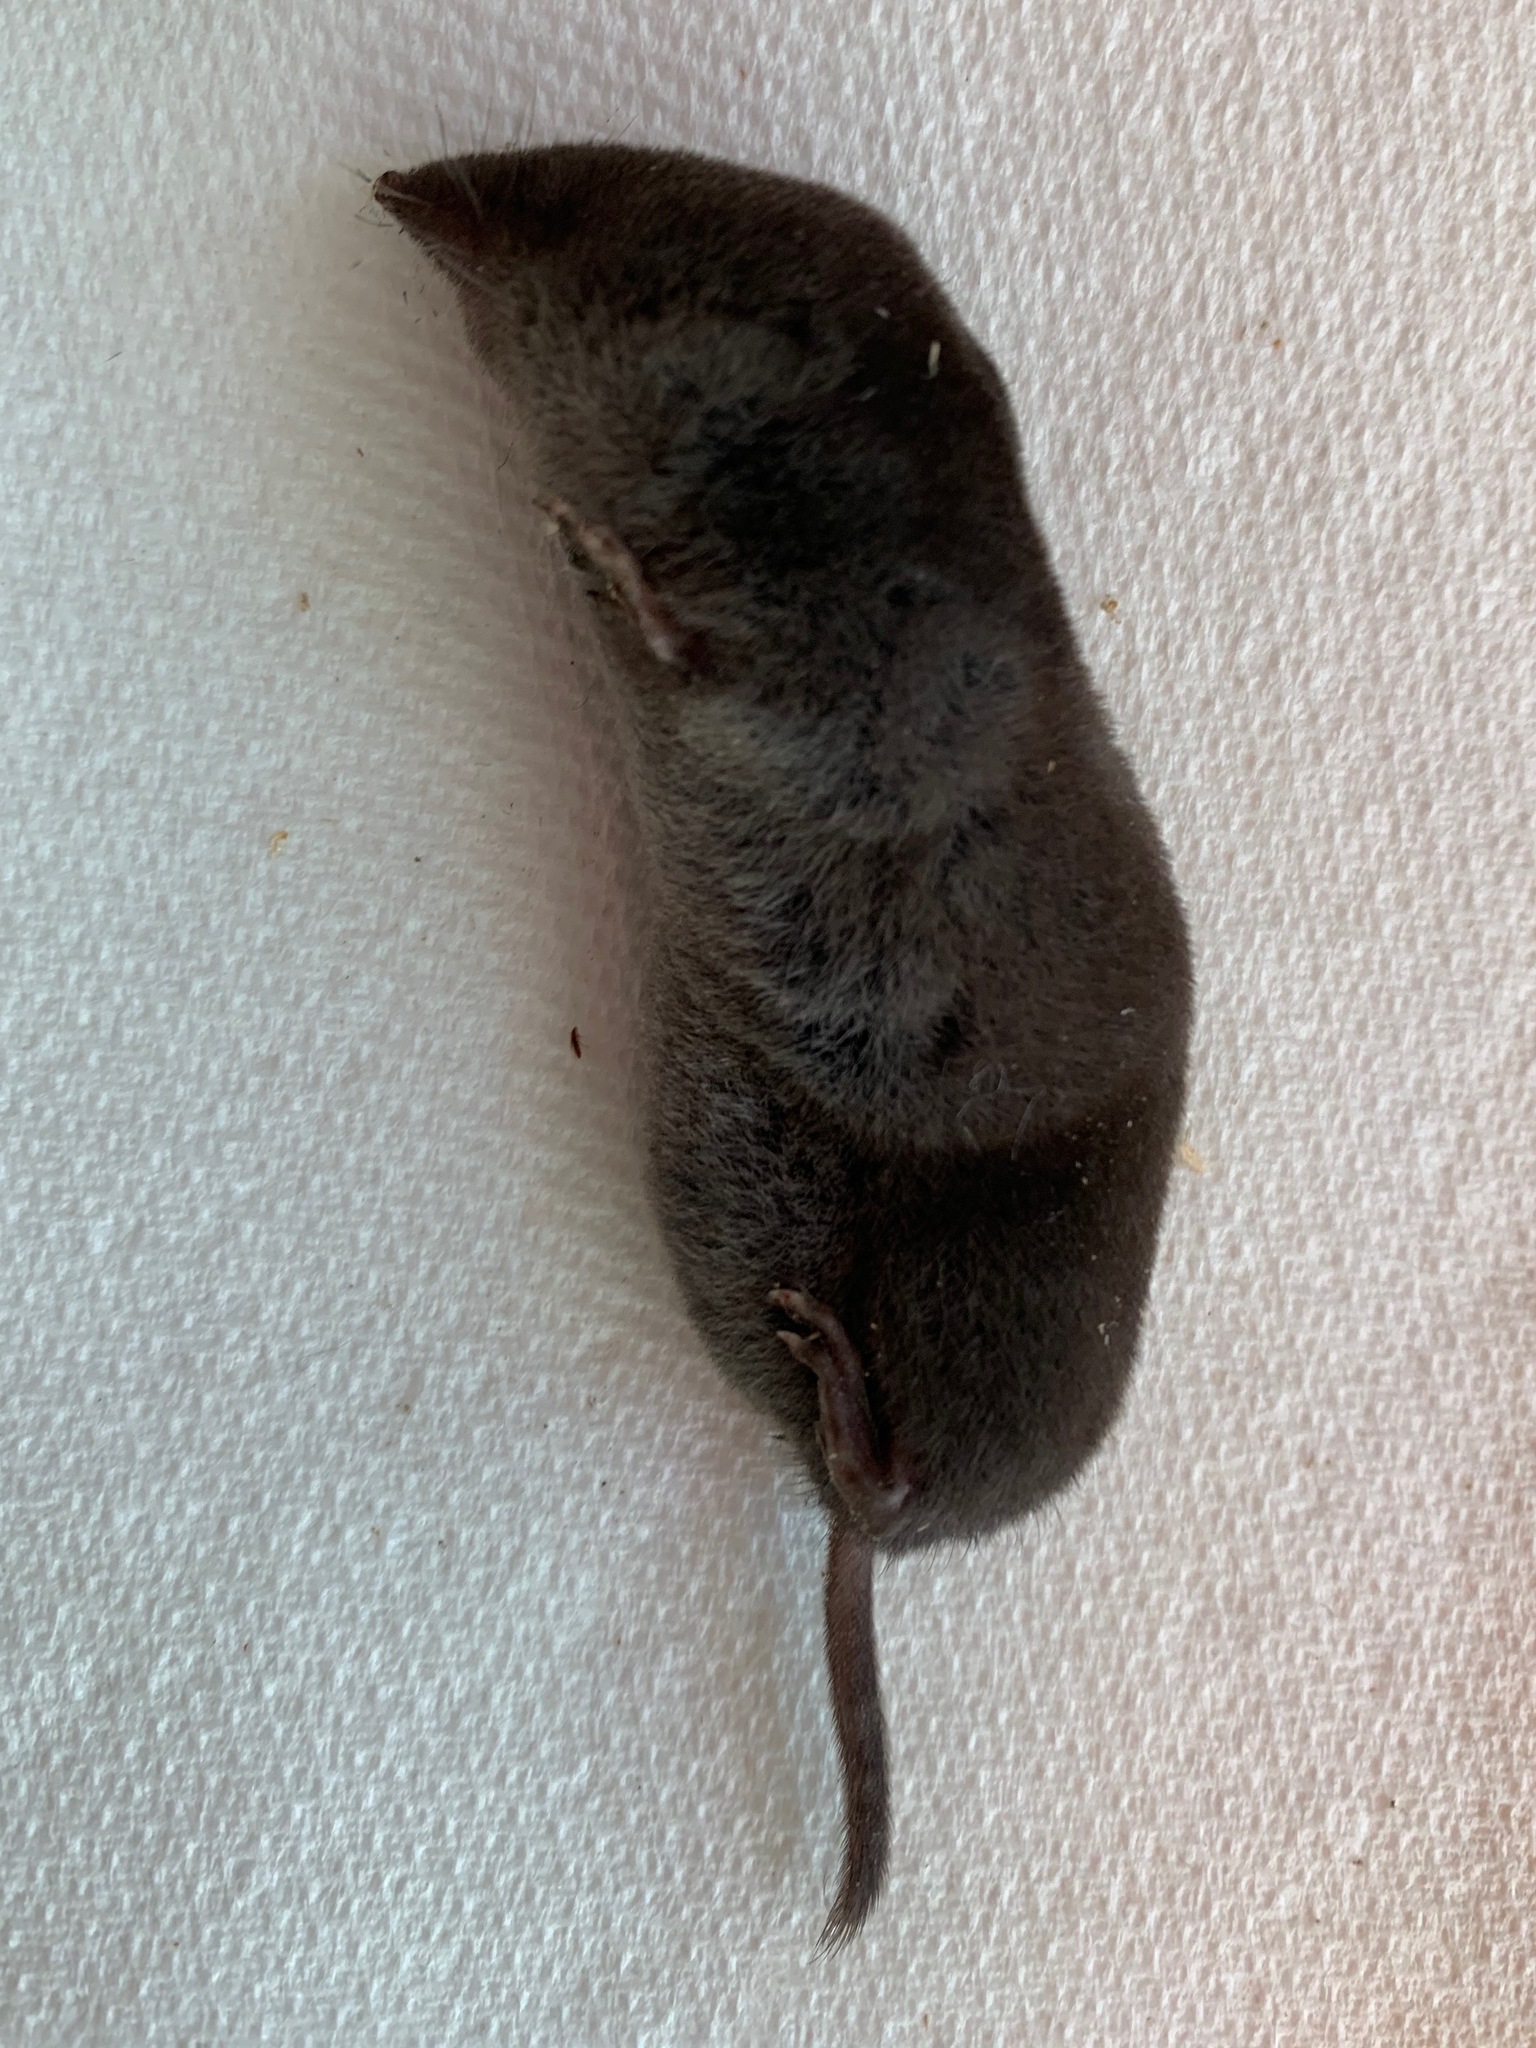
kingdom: Animalia
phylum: Chordata
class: Mammalia
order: Soricomorpha
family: Soricidae
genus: Blarina
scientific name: Blarina brevicauda
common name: Northern short-tailed shrew
